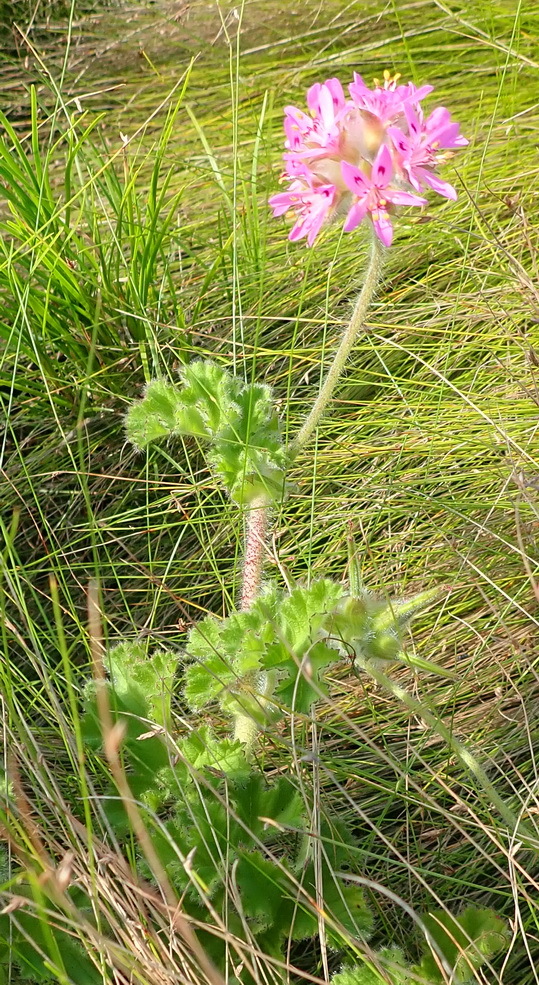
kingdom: Plantae
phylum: Tracheophyta
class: Magnoliopsida
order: Geraniales
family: Geraniaceae
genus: Pelargonium
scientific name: Pelargonium capitatum
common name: Rose scented geranium
